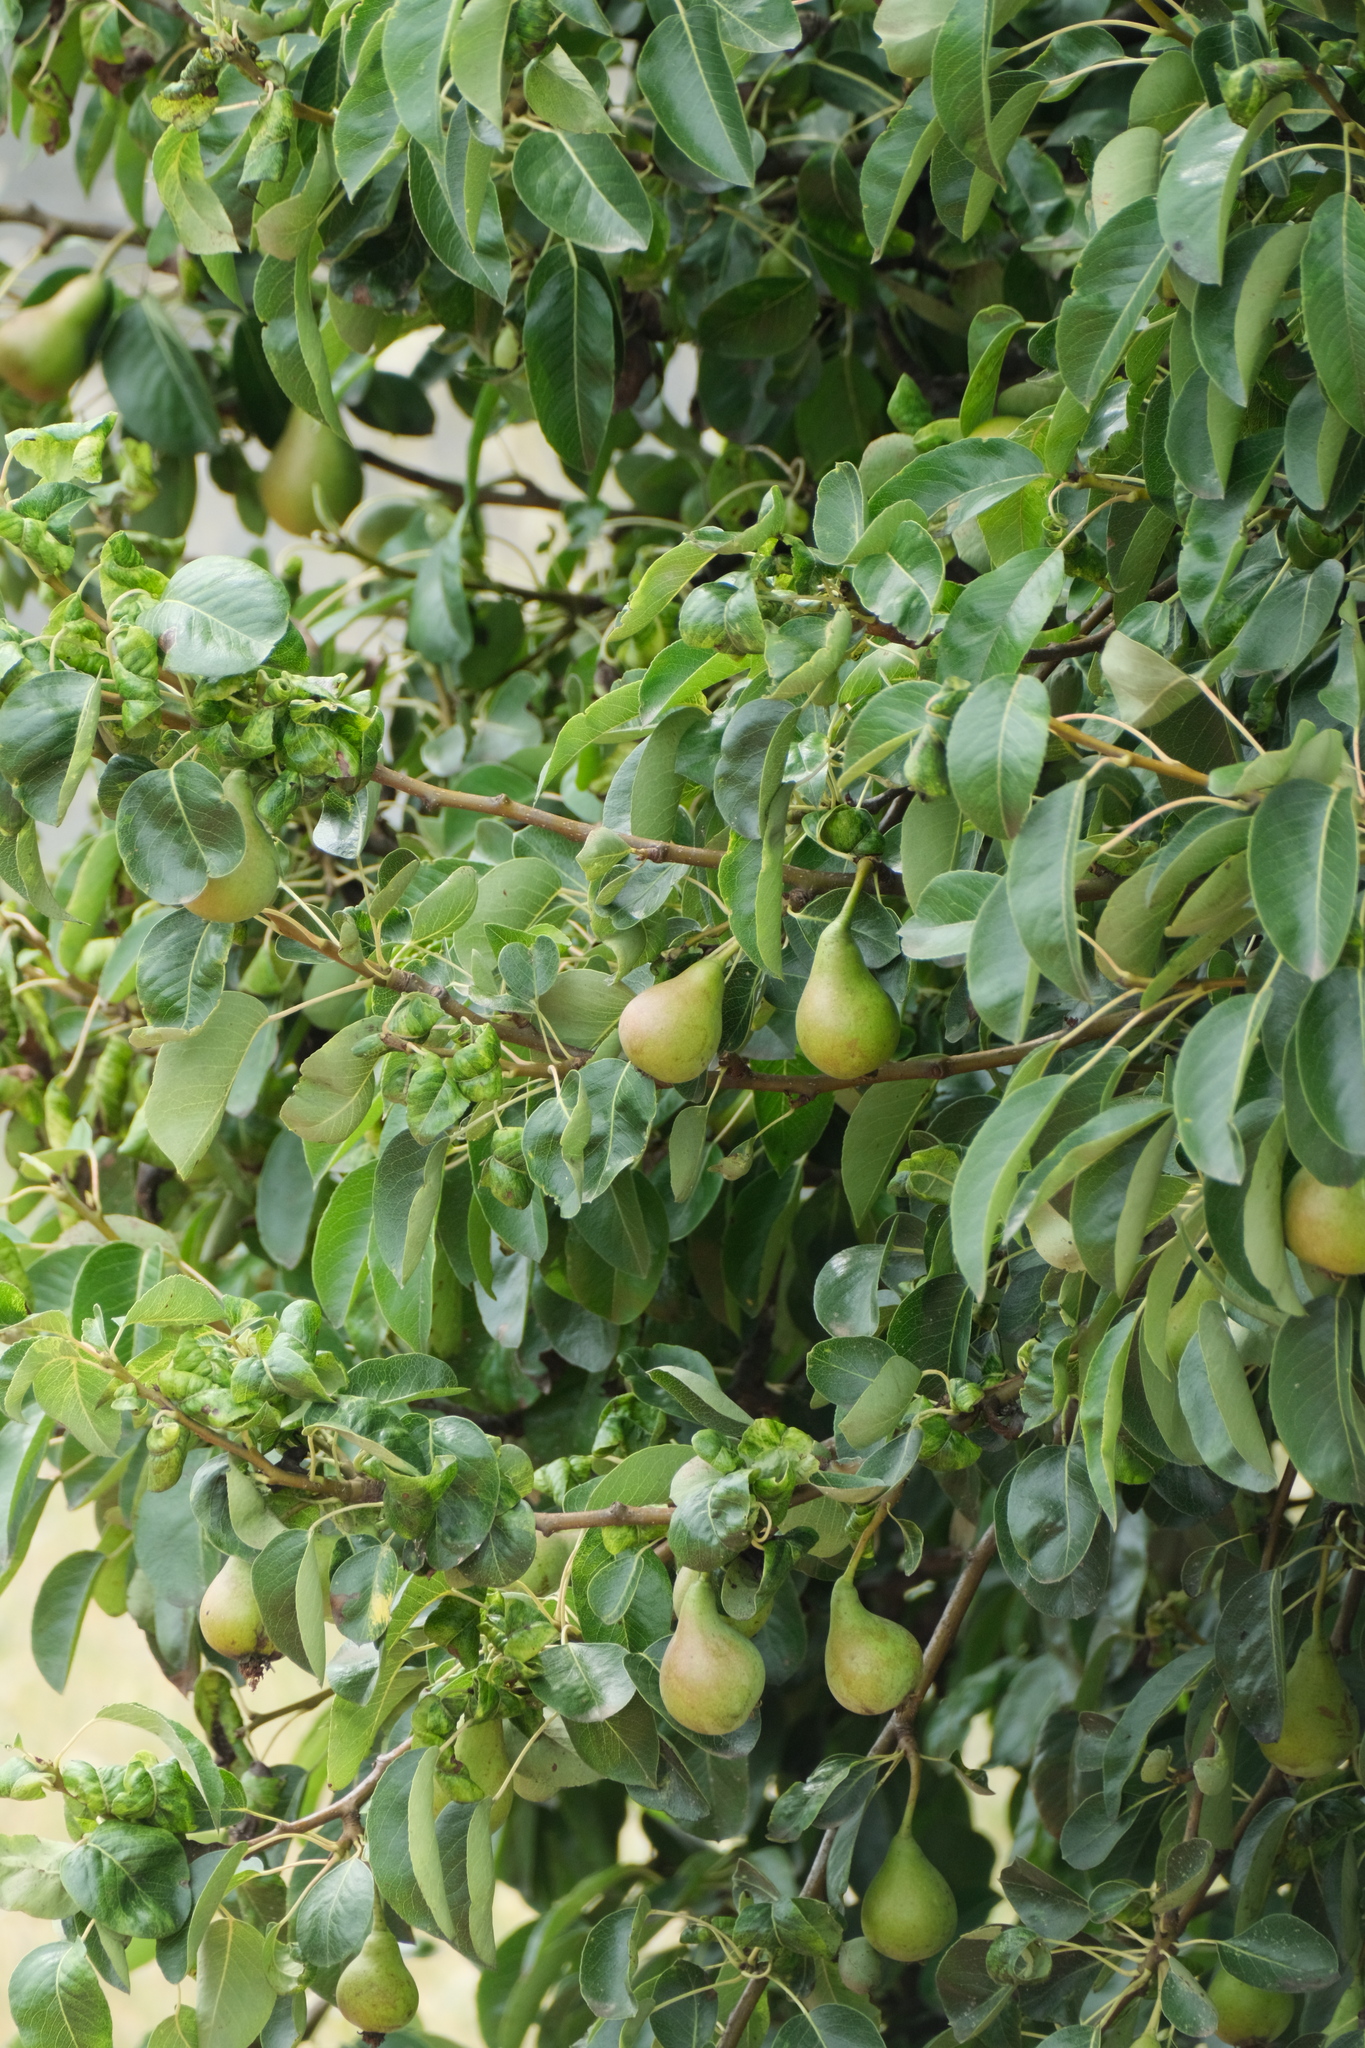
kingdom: Plantae
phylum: Tracheophyta
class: Magnoliopsida
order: Rosales
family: Rosaceae
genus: Pyrus
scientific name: Pyrus communis
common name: Pear
